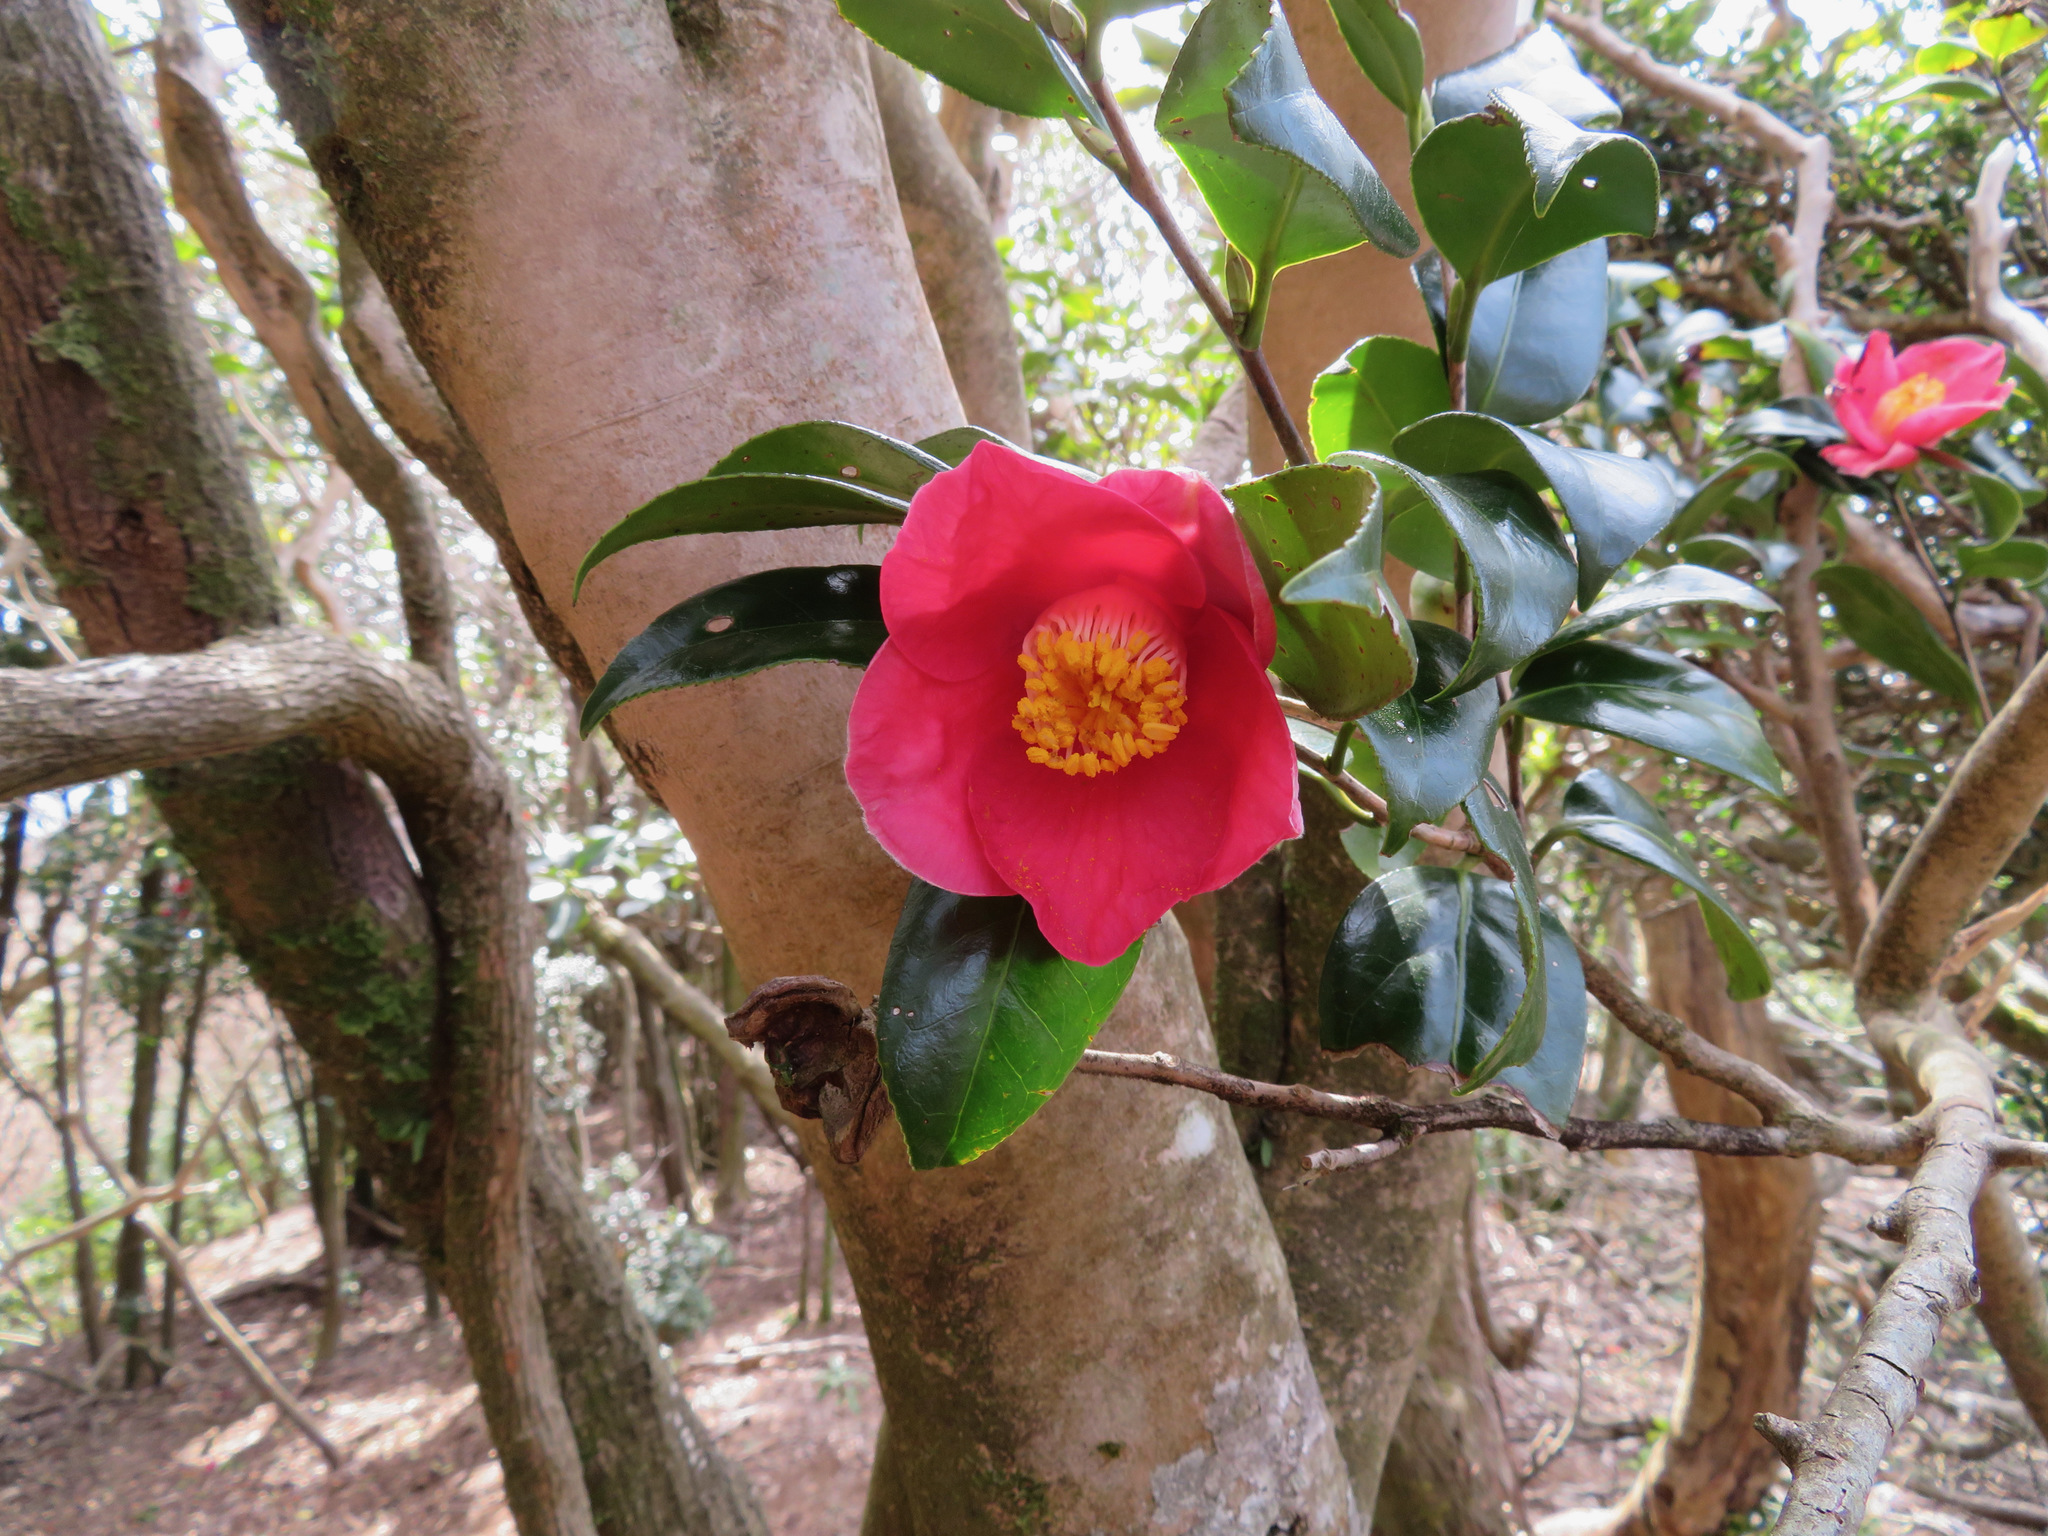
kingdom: Plantae
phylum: Tracheophyta
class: Magnoliopsida
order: Ericales
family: Theaceae
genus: Camellia
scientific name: Camellia japonica
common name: Camellia
